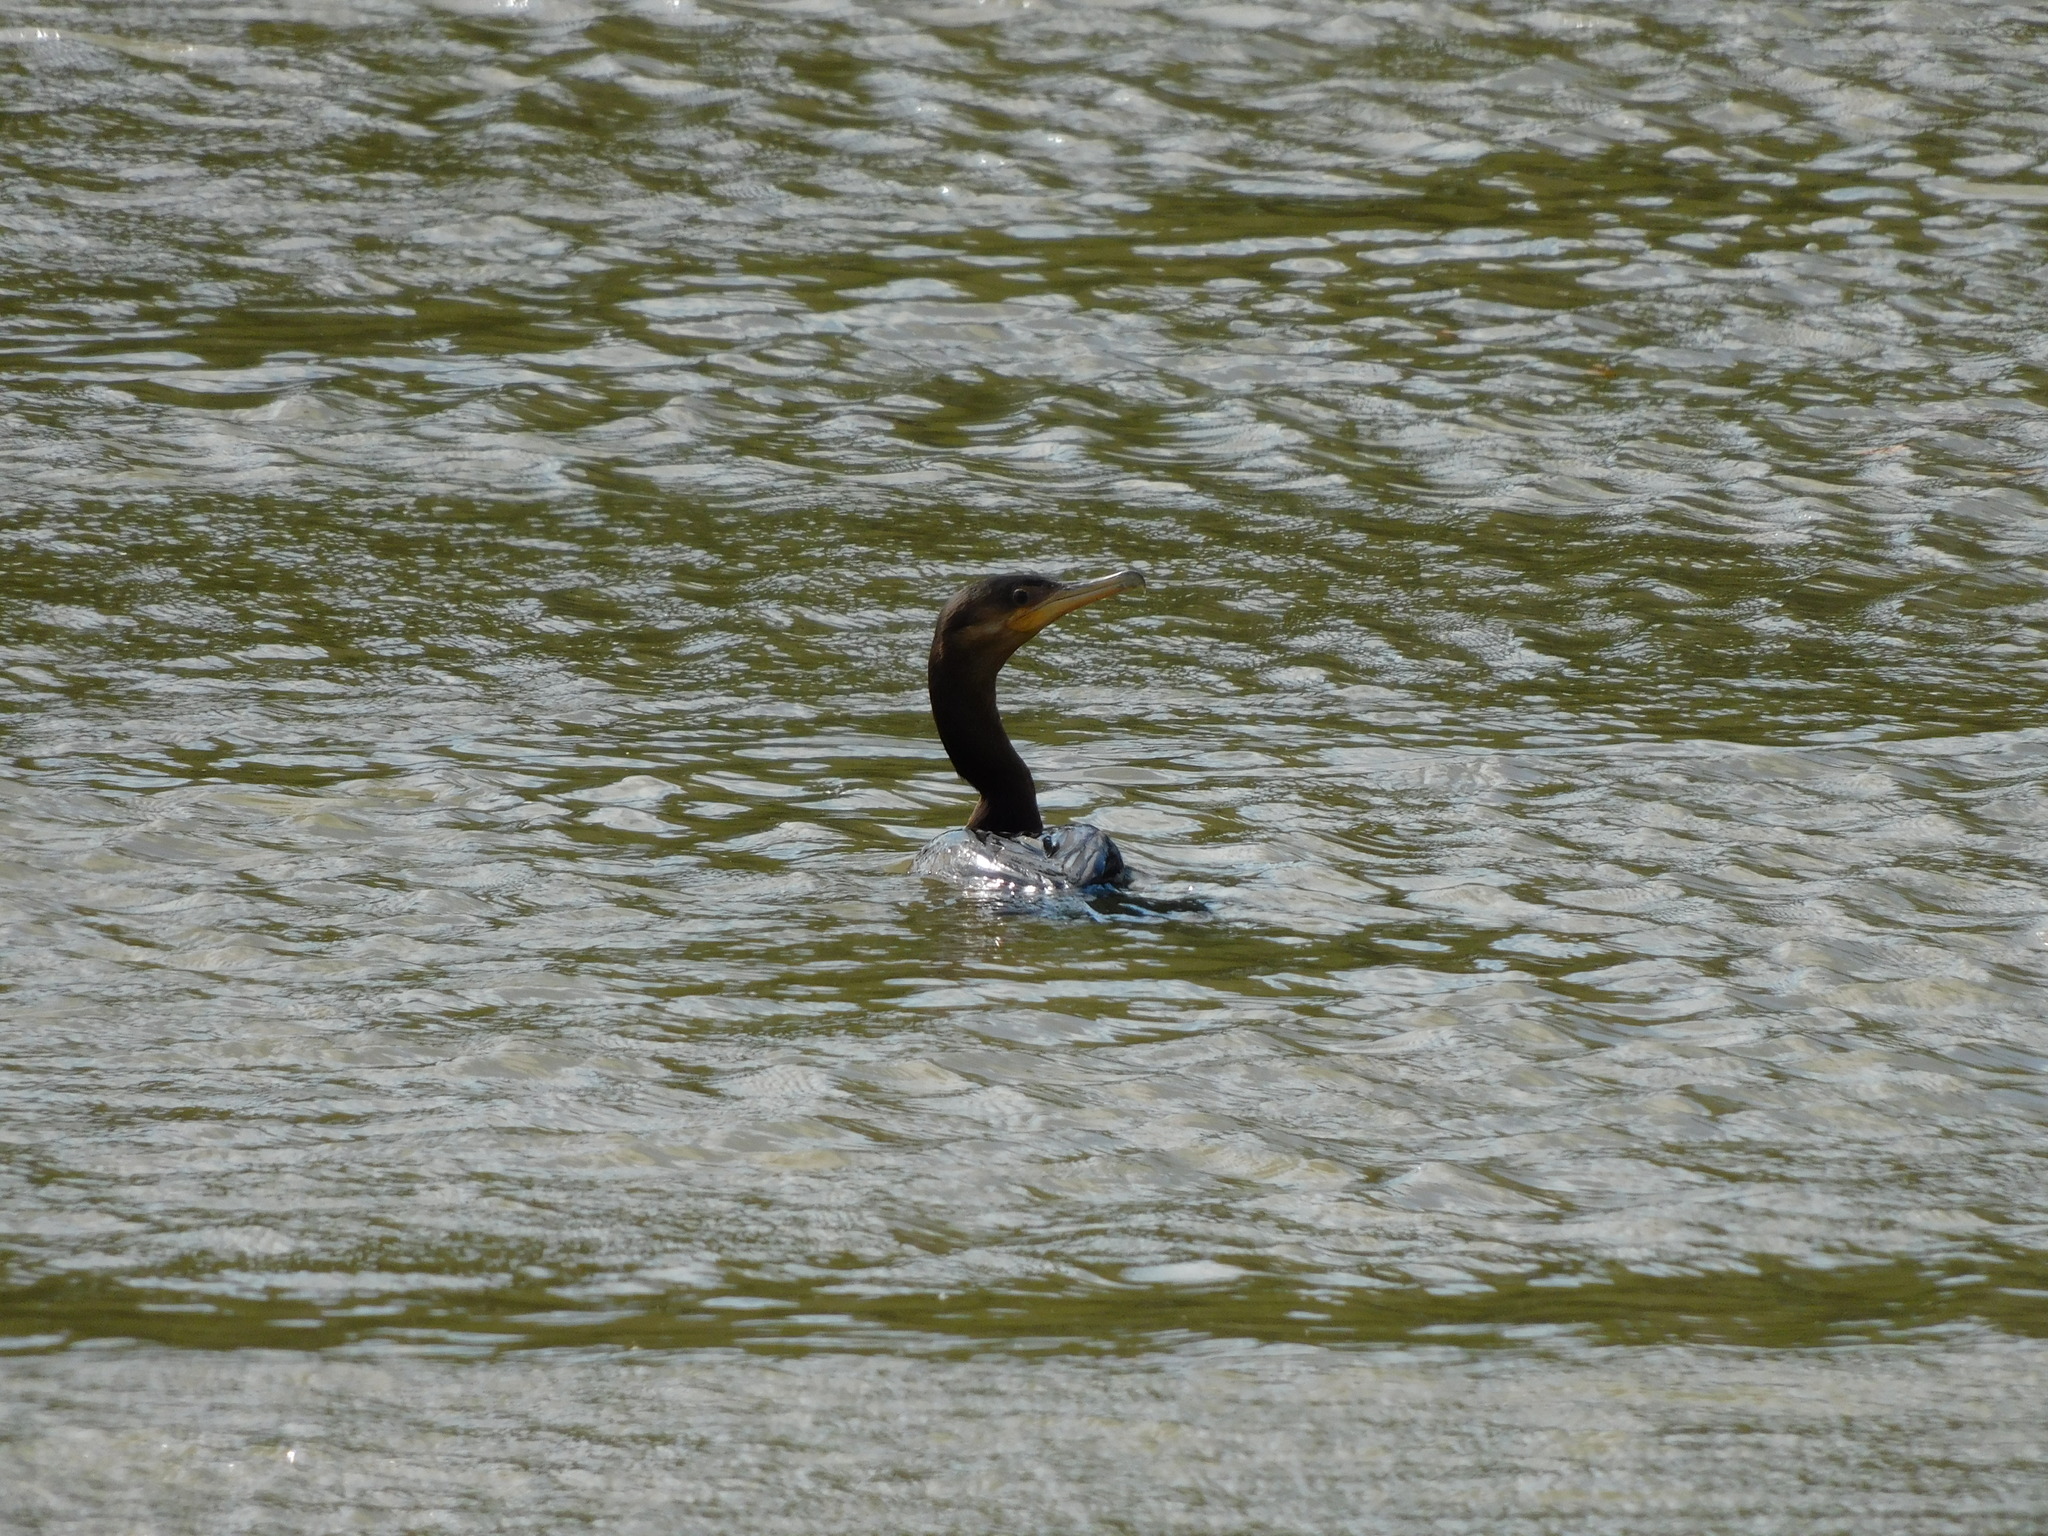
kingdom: Animalia
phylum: Chordata
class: Aves
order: Suliformes
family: Phalacrocoracidae
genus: Phalacrocorax
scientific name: Phalacrocorax brasilianus
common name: Neotropic cormorant
